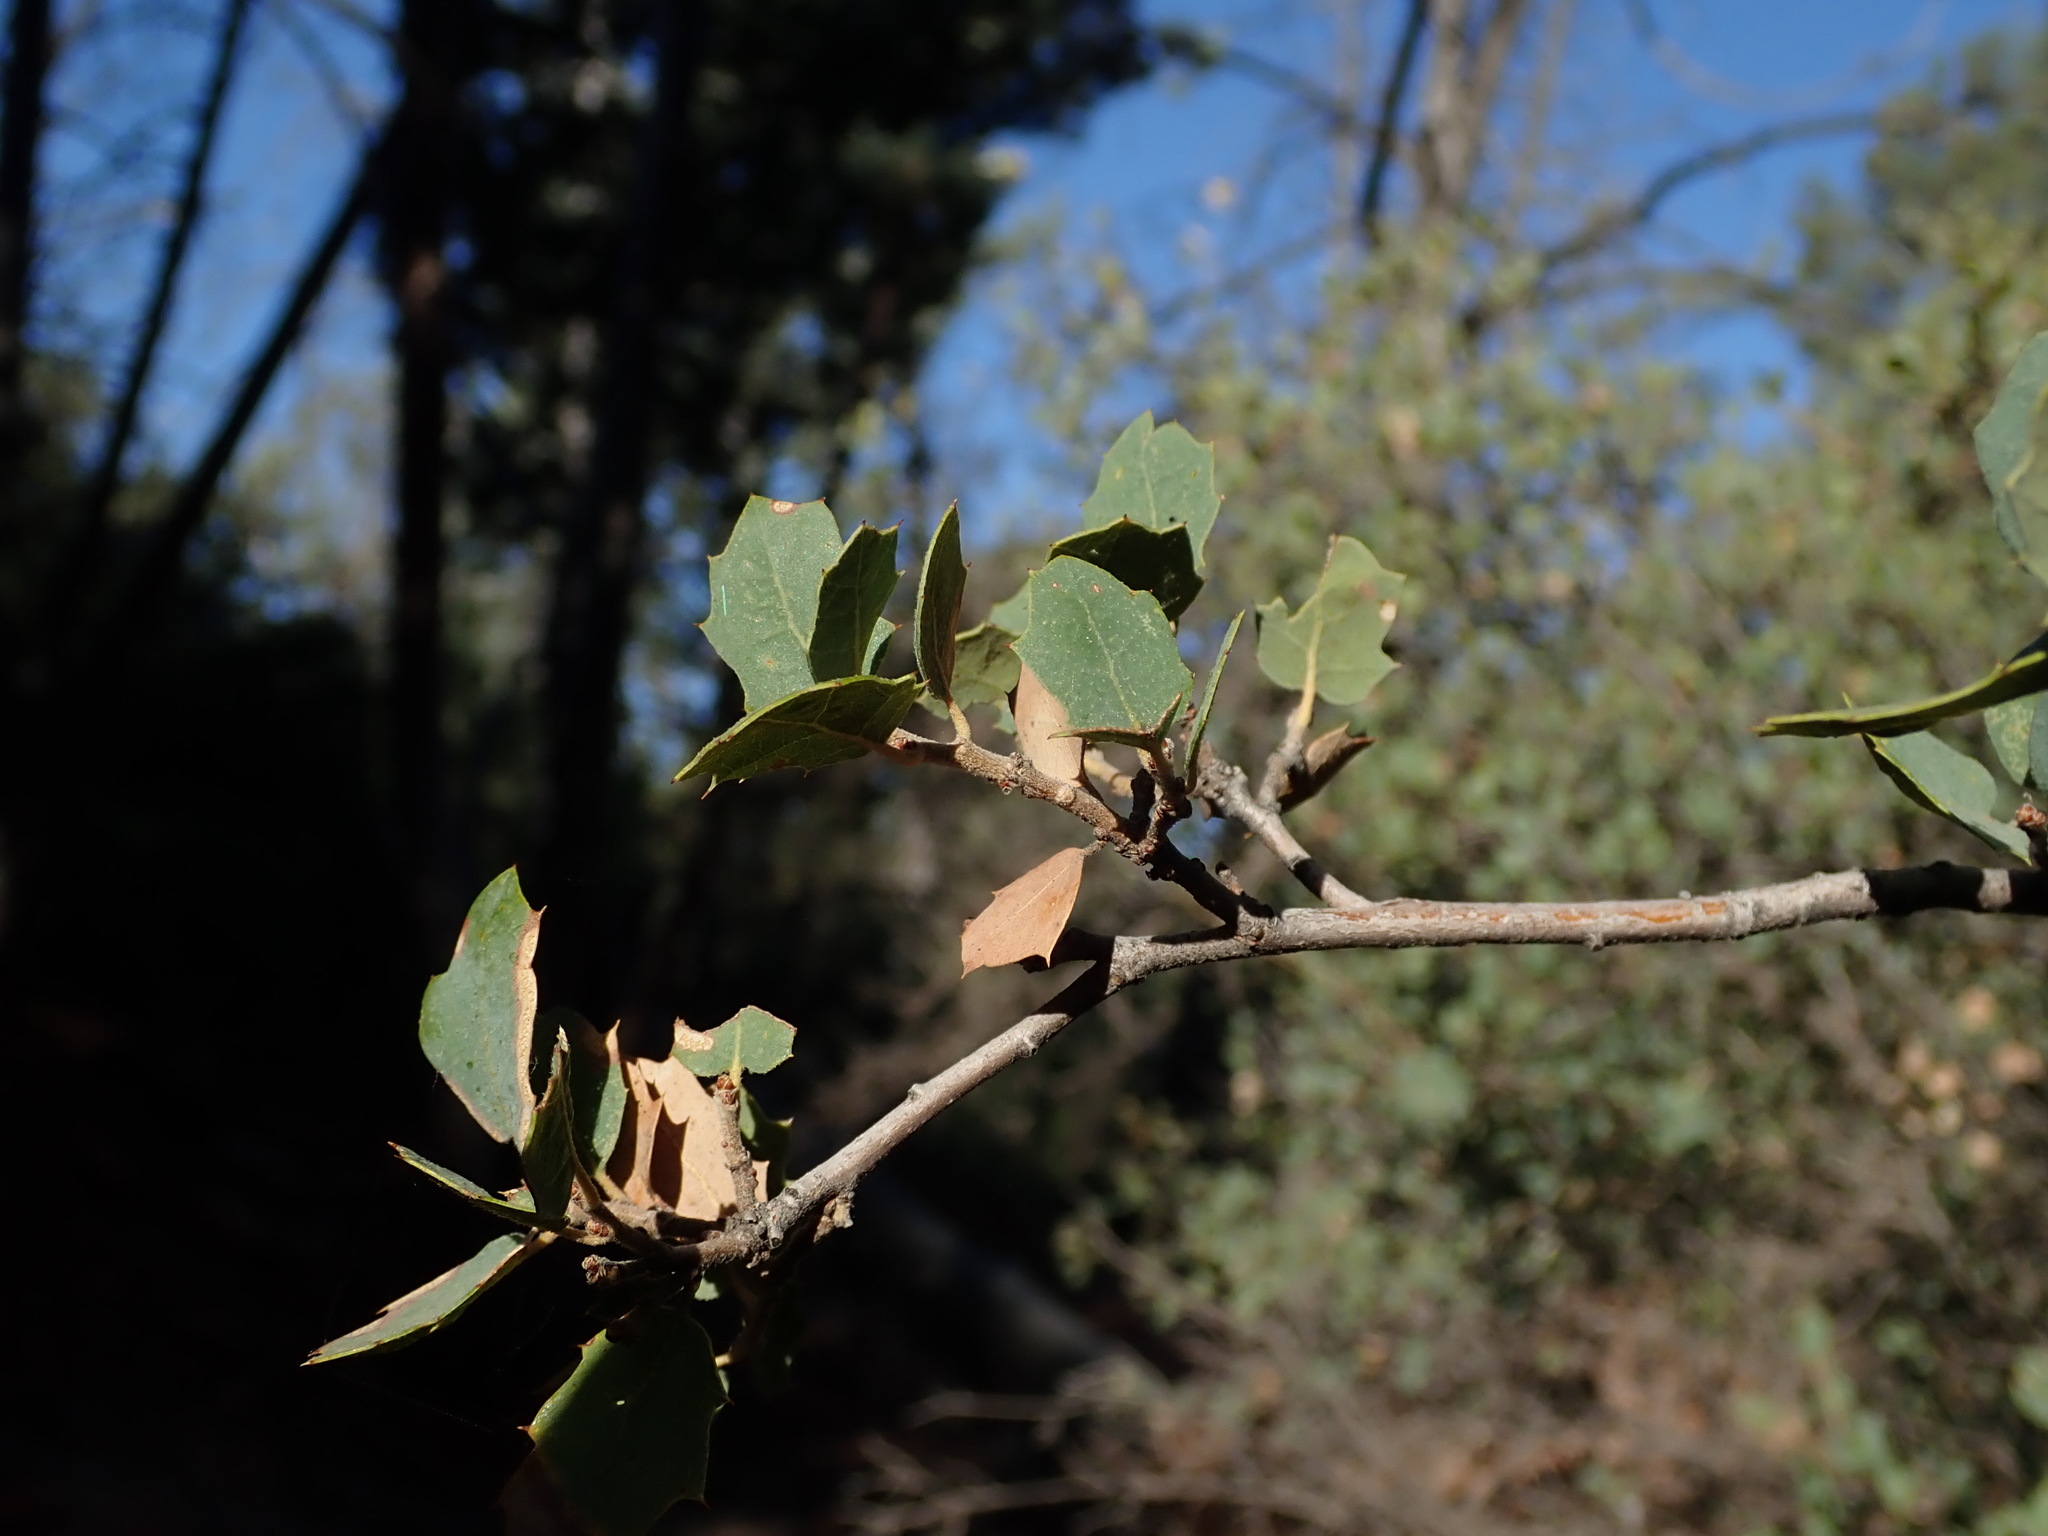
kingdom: Plantae
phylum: Tracheophyta
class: Magnoliopsida
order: Fagales
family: Fagaceae
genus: Quercus
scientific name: Quercus turbinella
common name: Sonoran scrub oak
